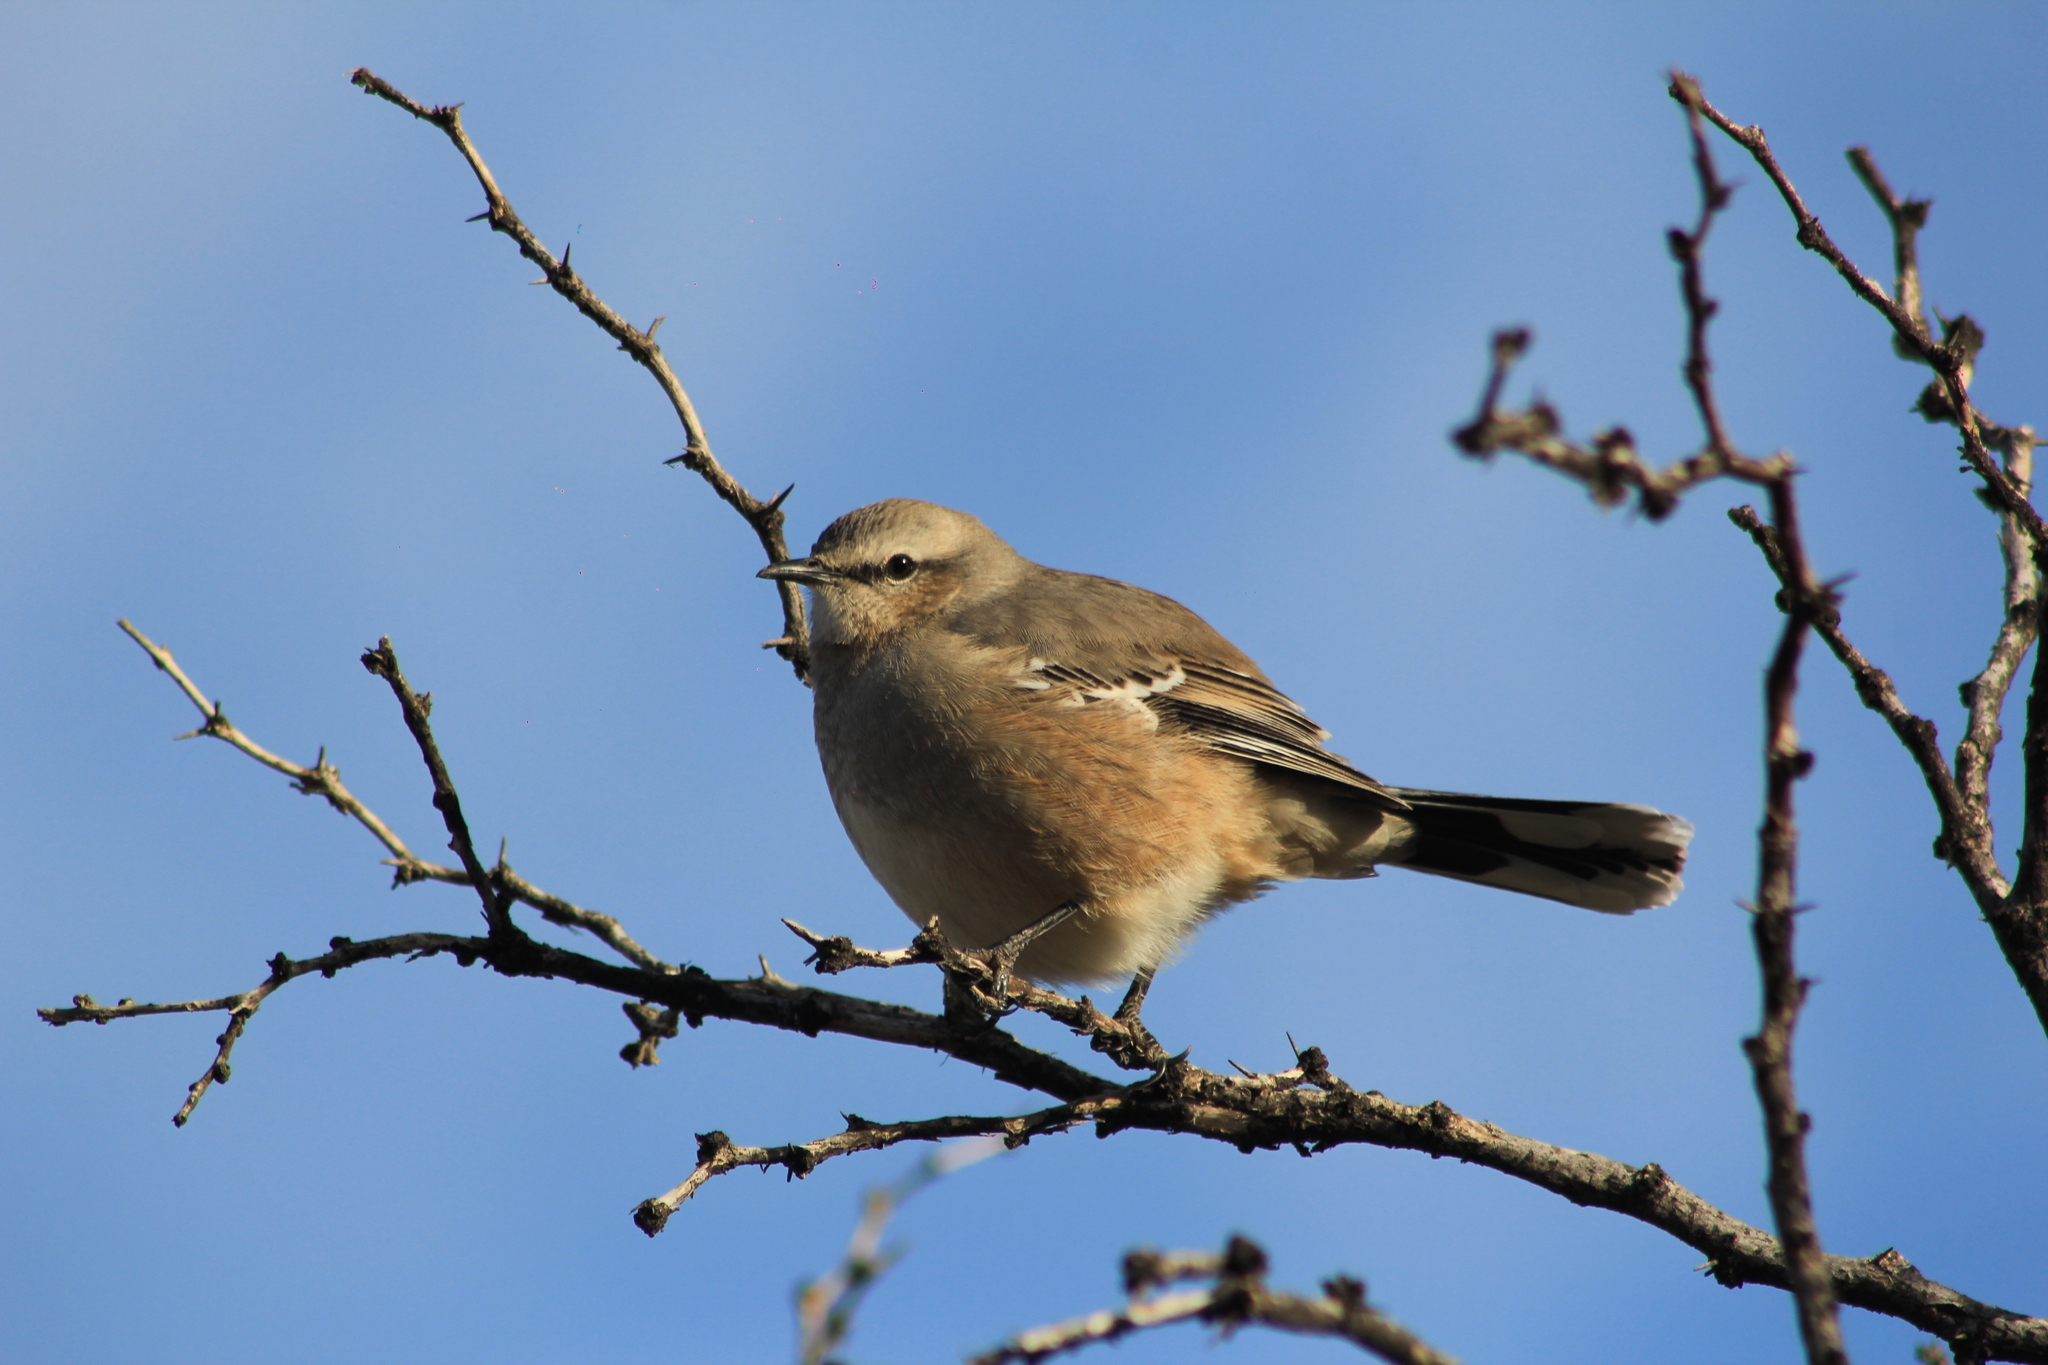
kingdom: Animalia
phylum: Chordata
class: Aves
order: Passeriformes
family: Mimidae
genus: Mimus
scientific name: Mimus patagonicus
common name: Patagonian mockingbird
